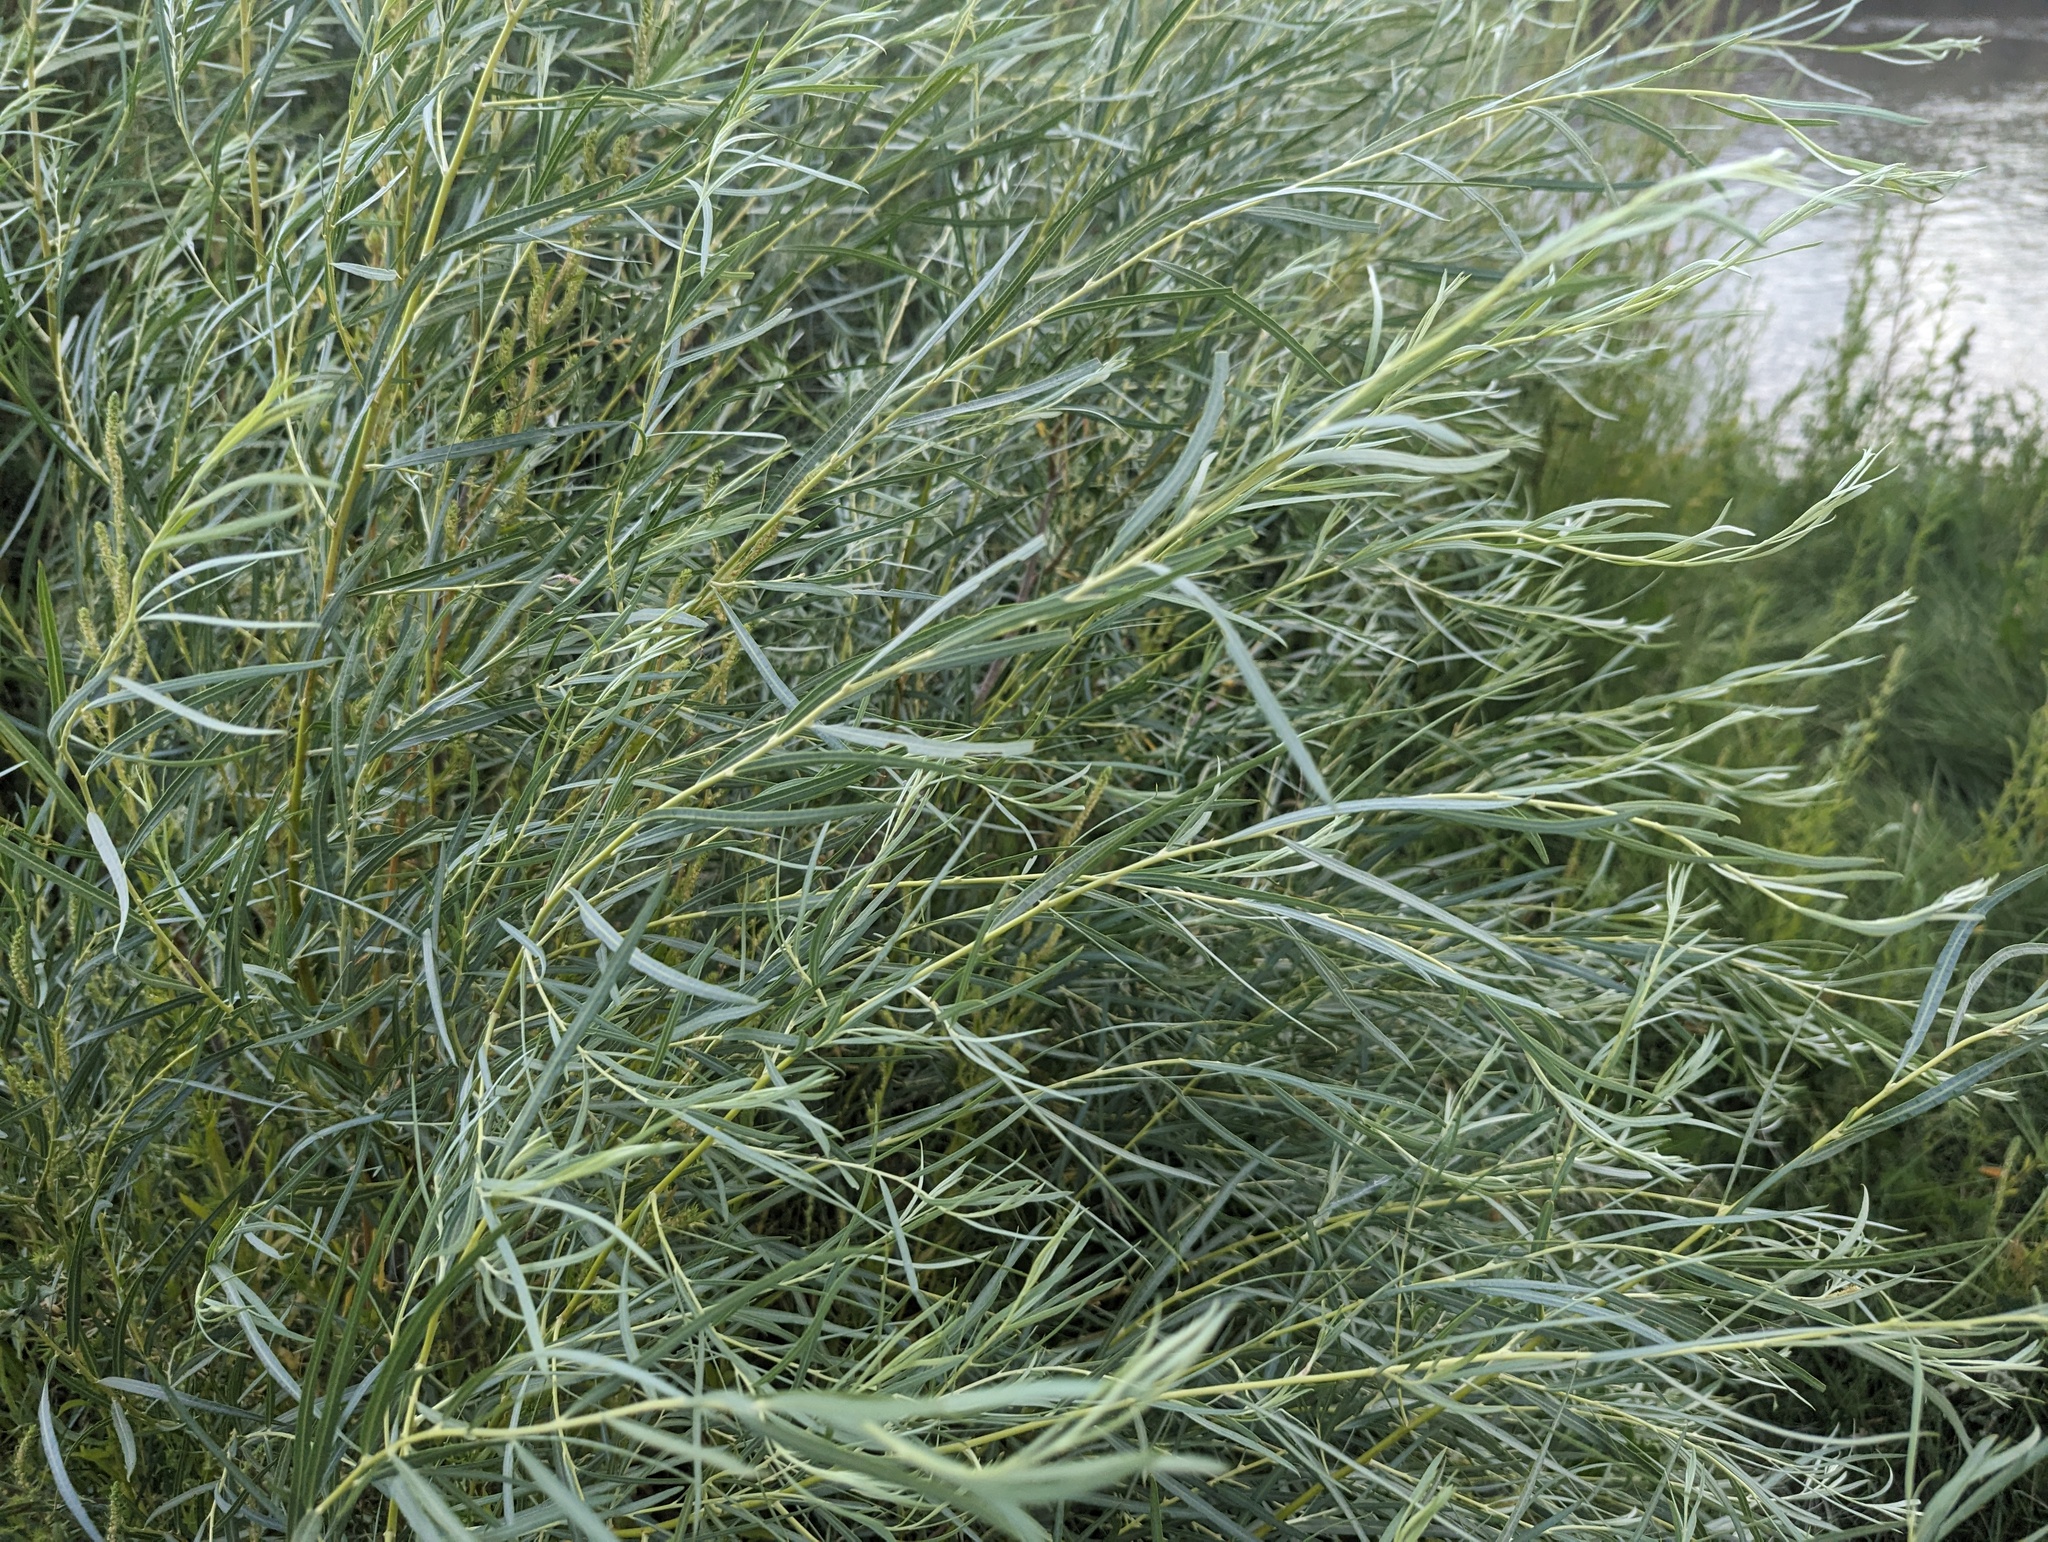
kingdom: Plantae
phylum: Tracheophyta
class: Magnoliopsida
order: Malpighiales
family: Salicaceae
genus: Salix
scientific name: Salix exigua
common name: Coyote willow
